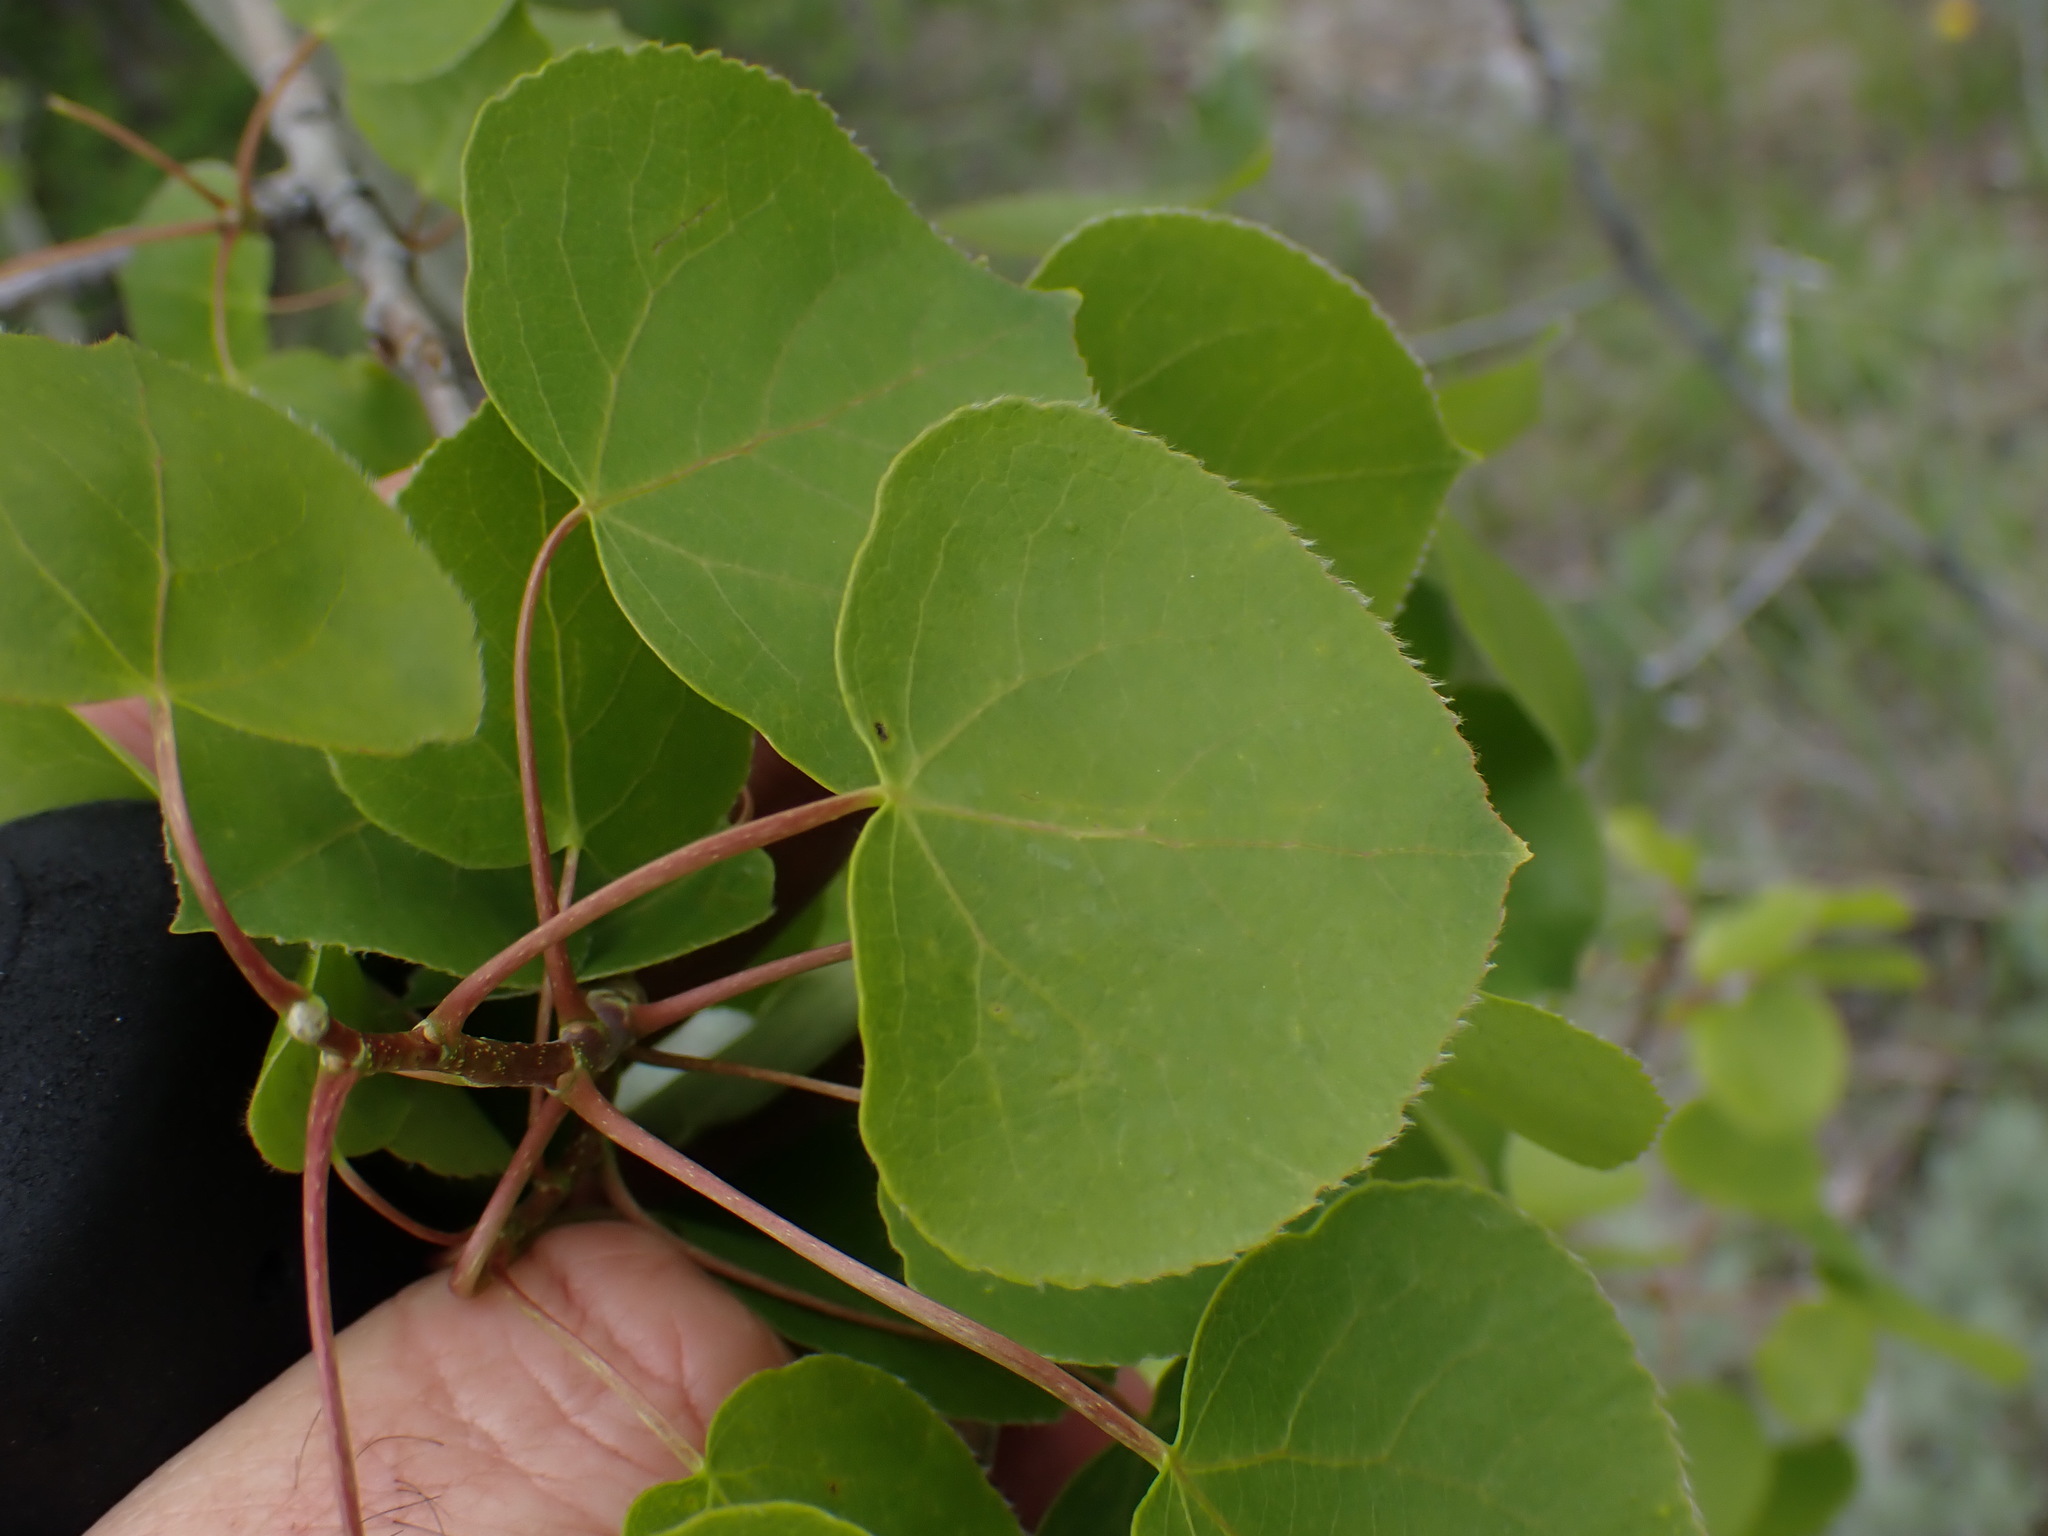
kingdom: Plantae
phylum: Tracheophyta
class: Magnoliopsida
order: Malpighiales
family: Salicaceae
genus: Populus
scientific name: Populus tremuloides
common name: Quaking aspen
